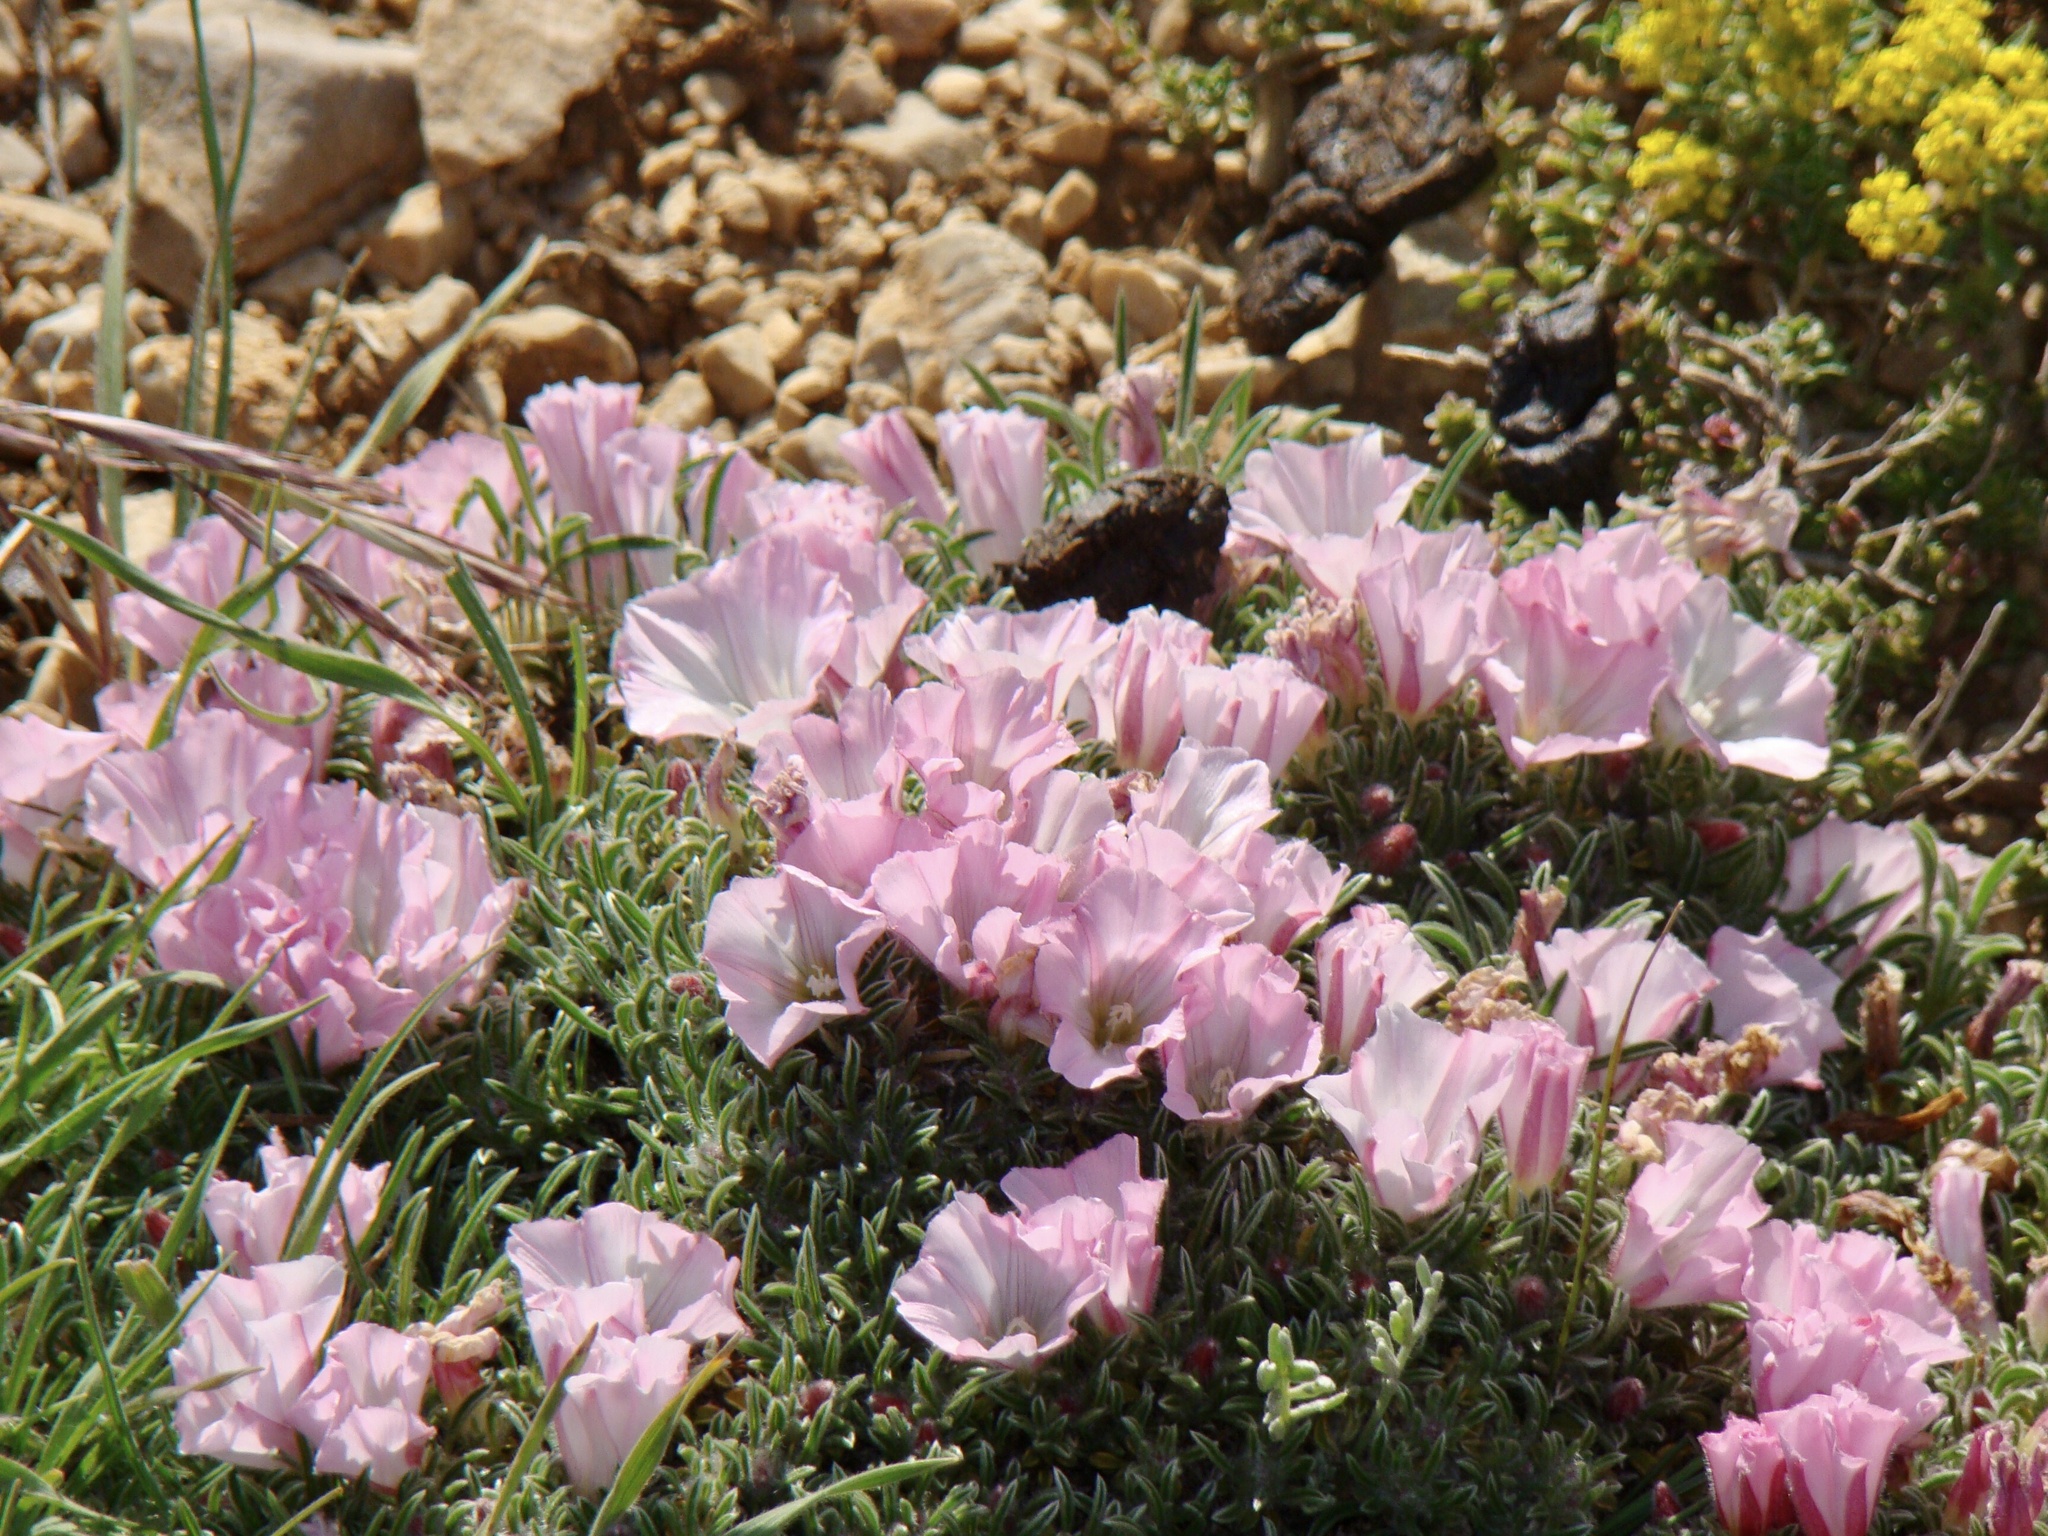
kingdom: Plantae
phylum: Tracheophyta
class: Magnoliopsida
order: Solanales
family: Convolvulaceae
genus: Convolvulus
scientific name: Convolvulus assyricus
